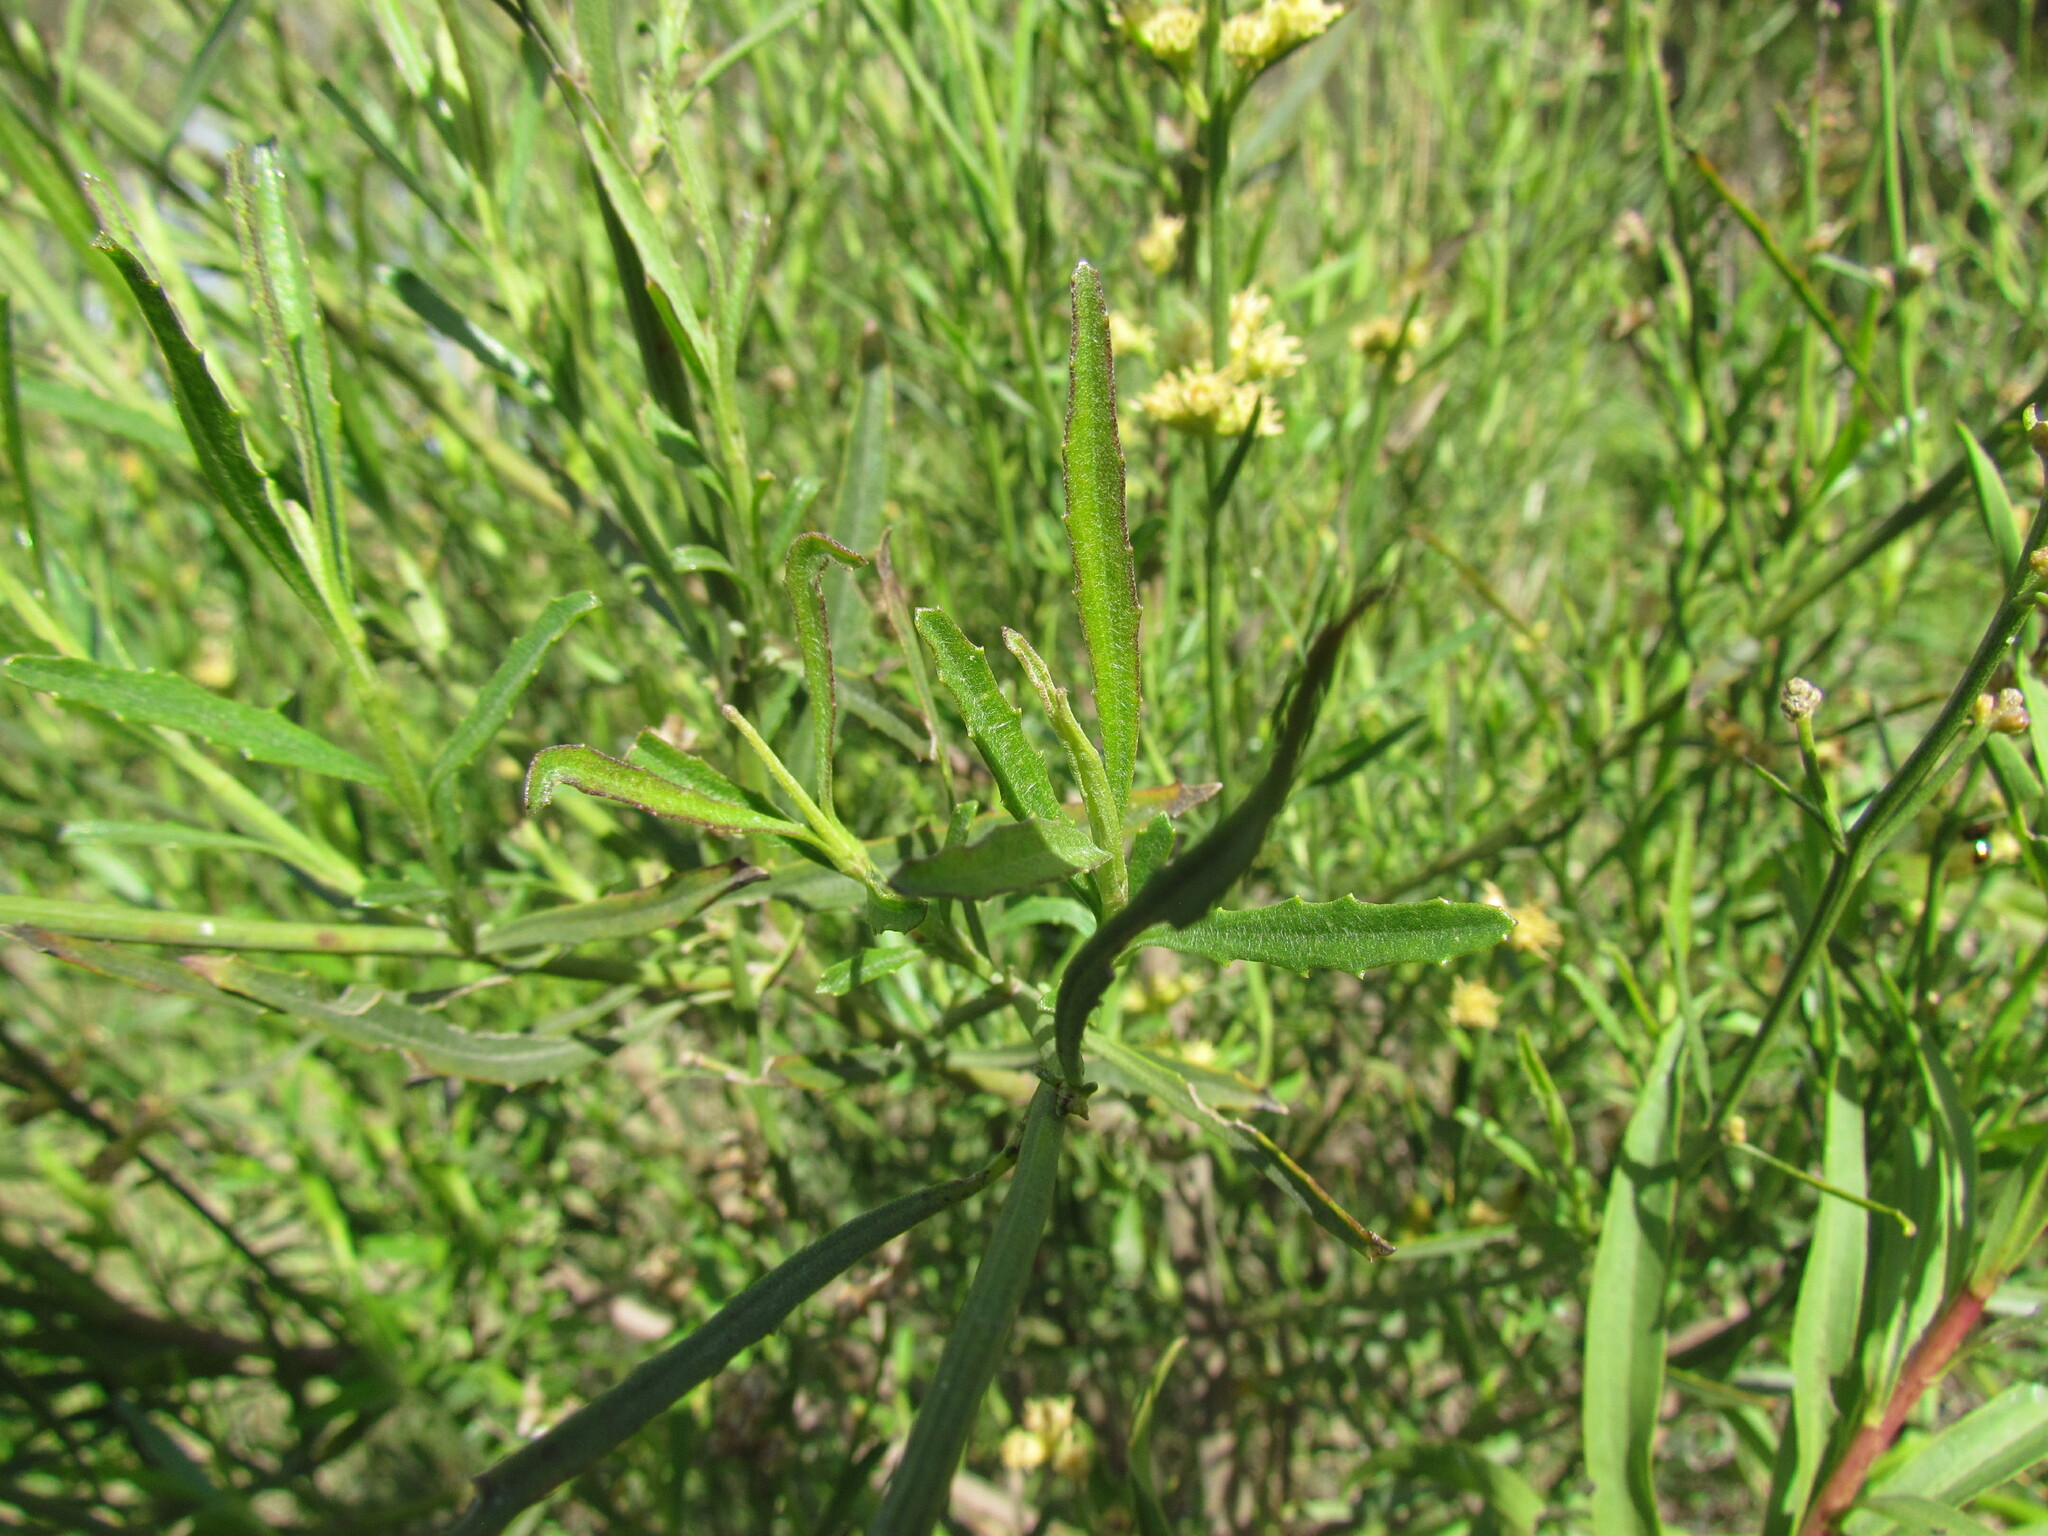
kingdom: Plantae
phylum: Tracheophyta
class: Magnoliopsida
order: Asterales
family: Asteraceae
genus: Baccharis
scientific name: Baccharis spicata
